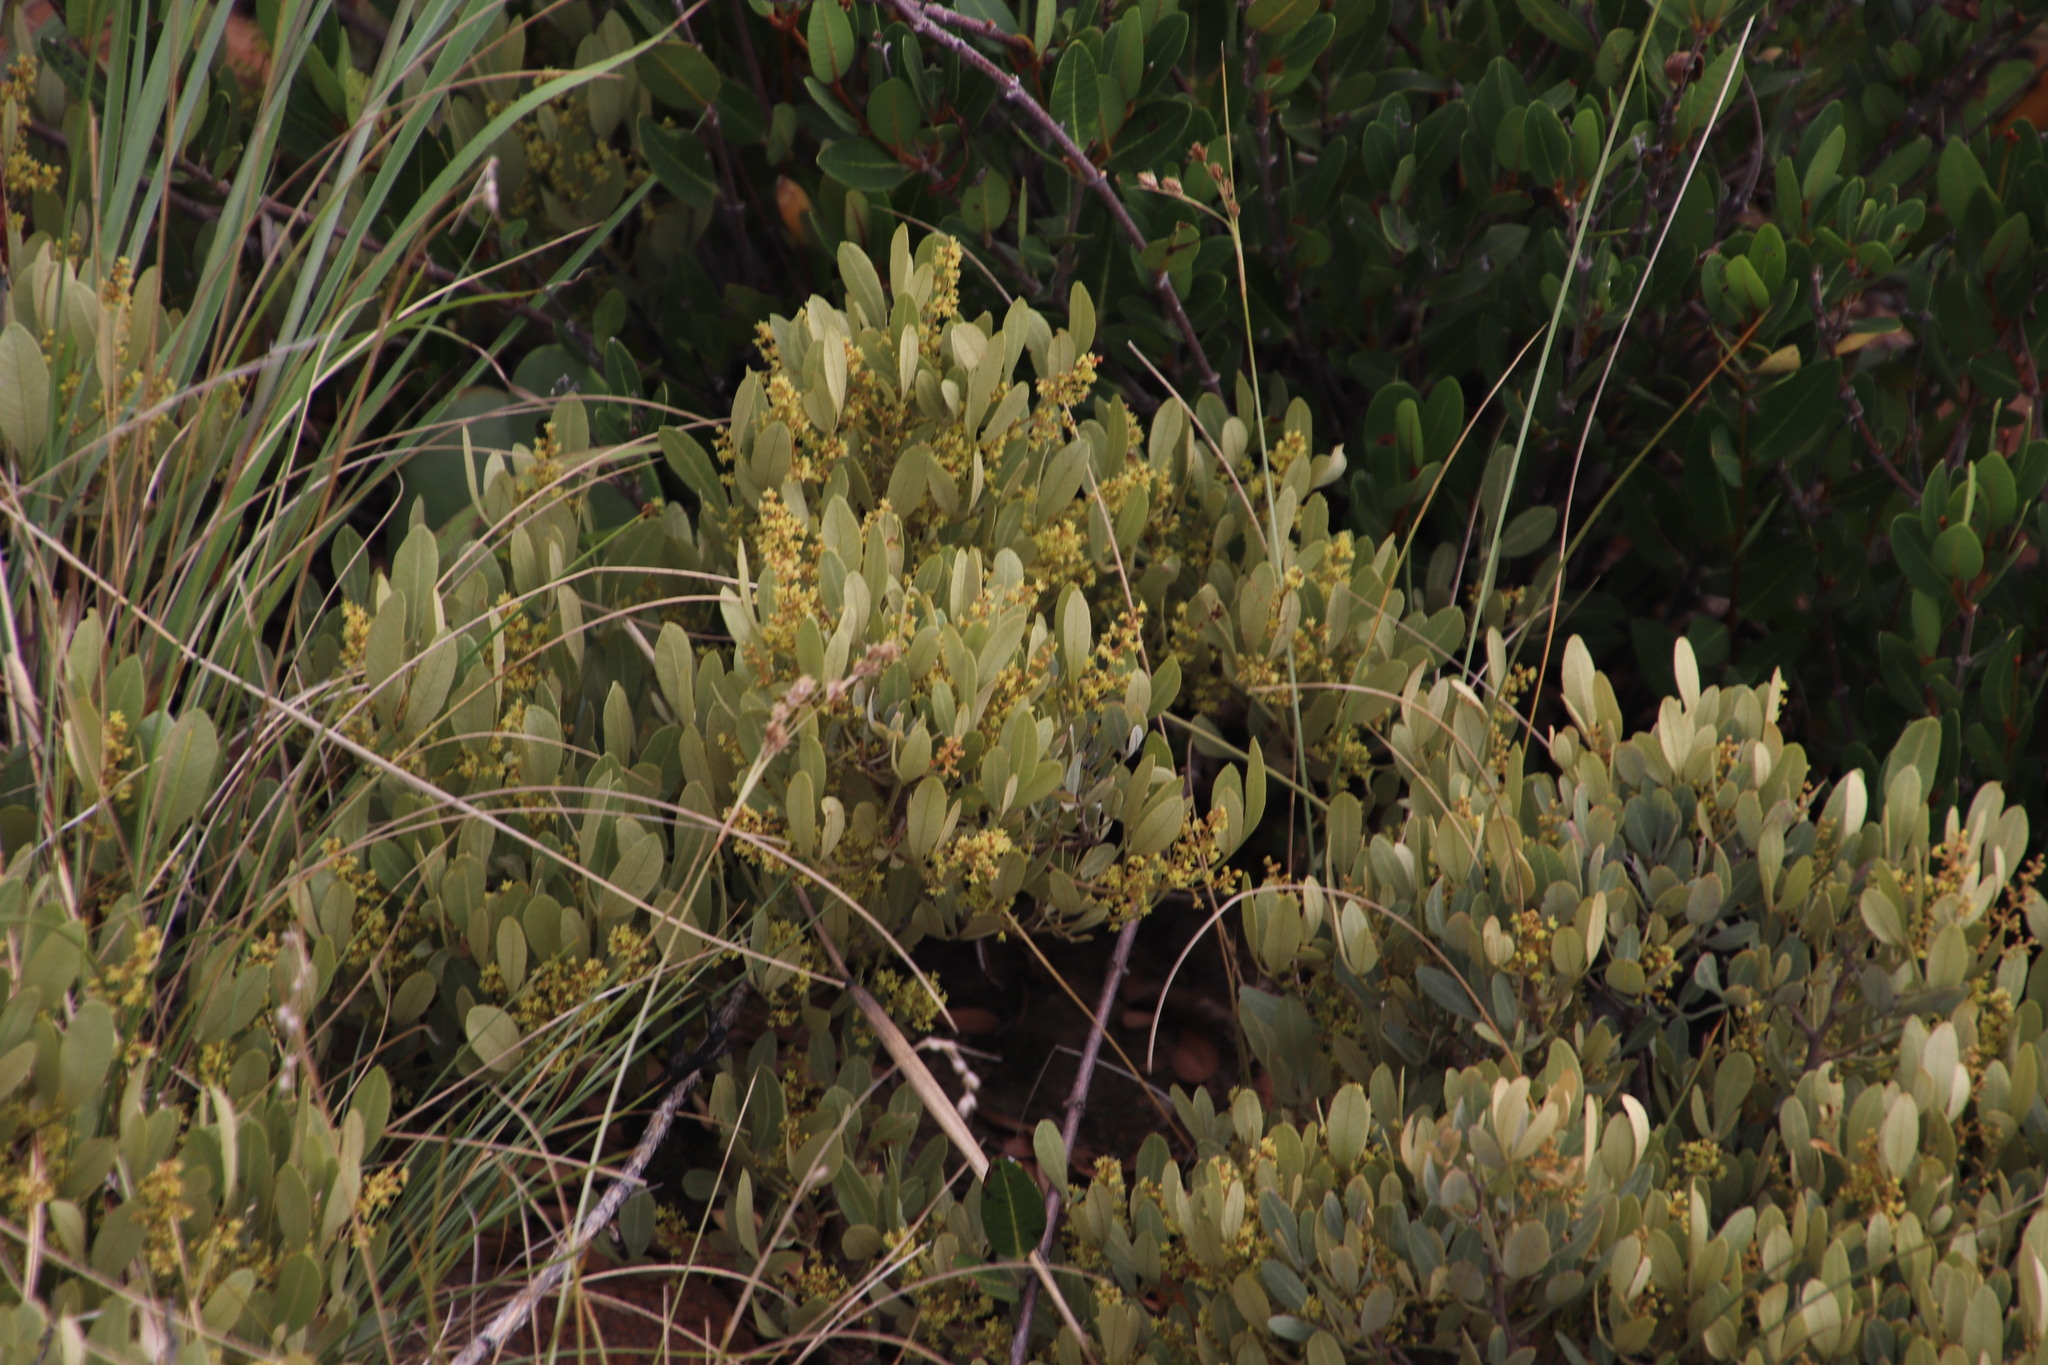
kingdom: Plantae
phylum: Tracheophyta
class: Magnoliopsida
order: Sapindales
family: Anacardiaceae
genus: Searsia
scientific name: Searsia magalismontana
